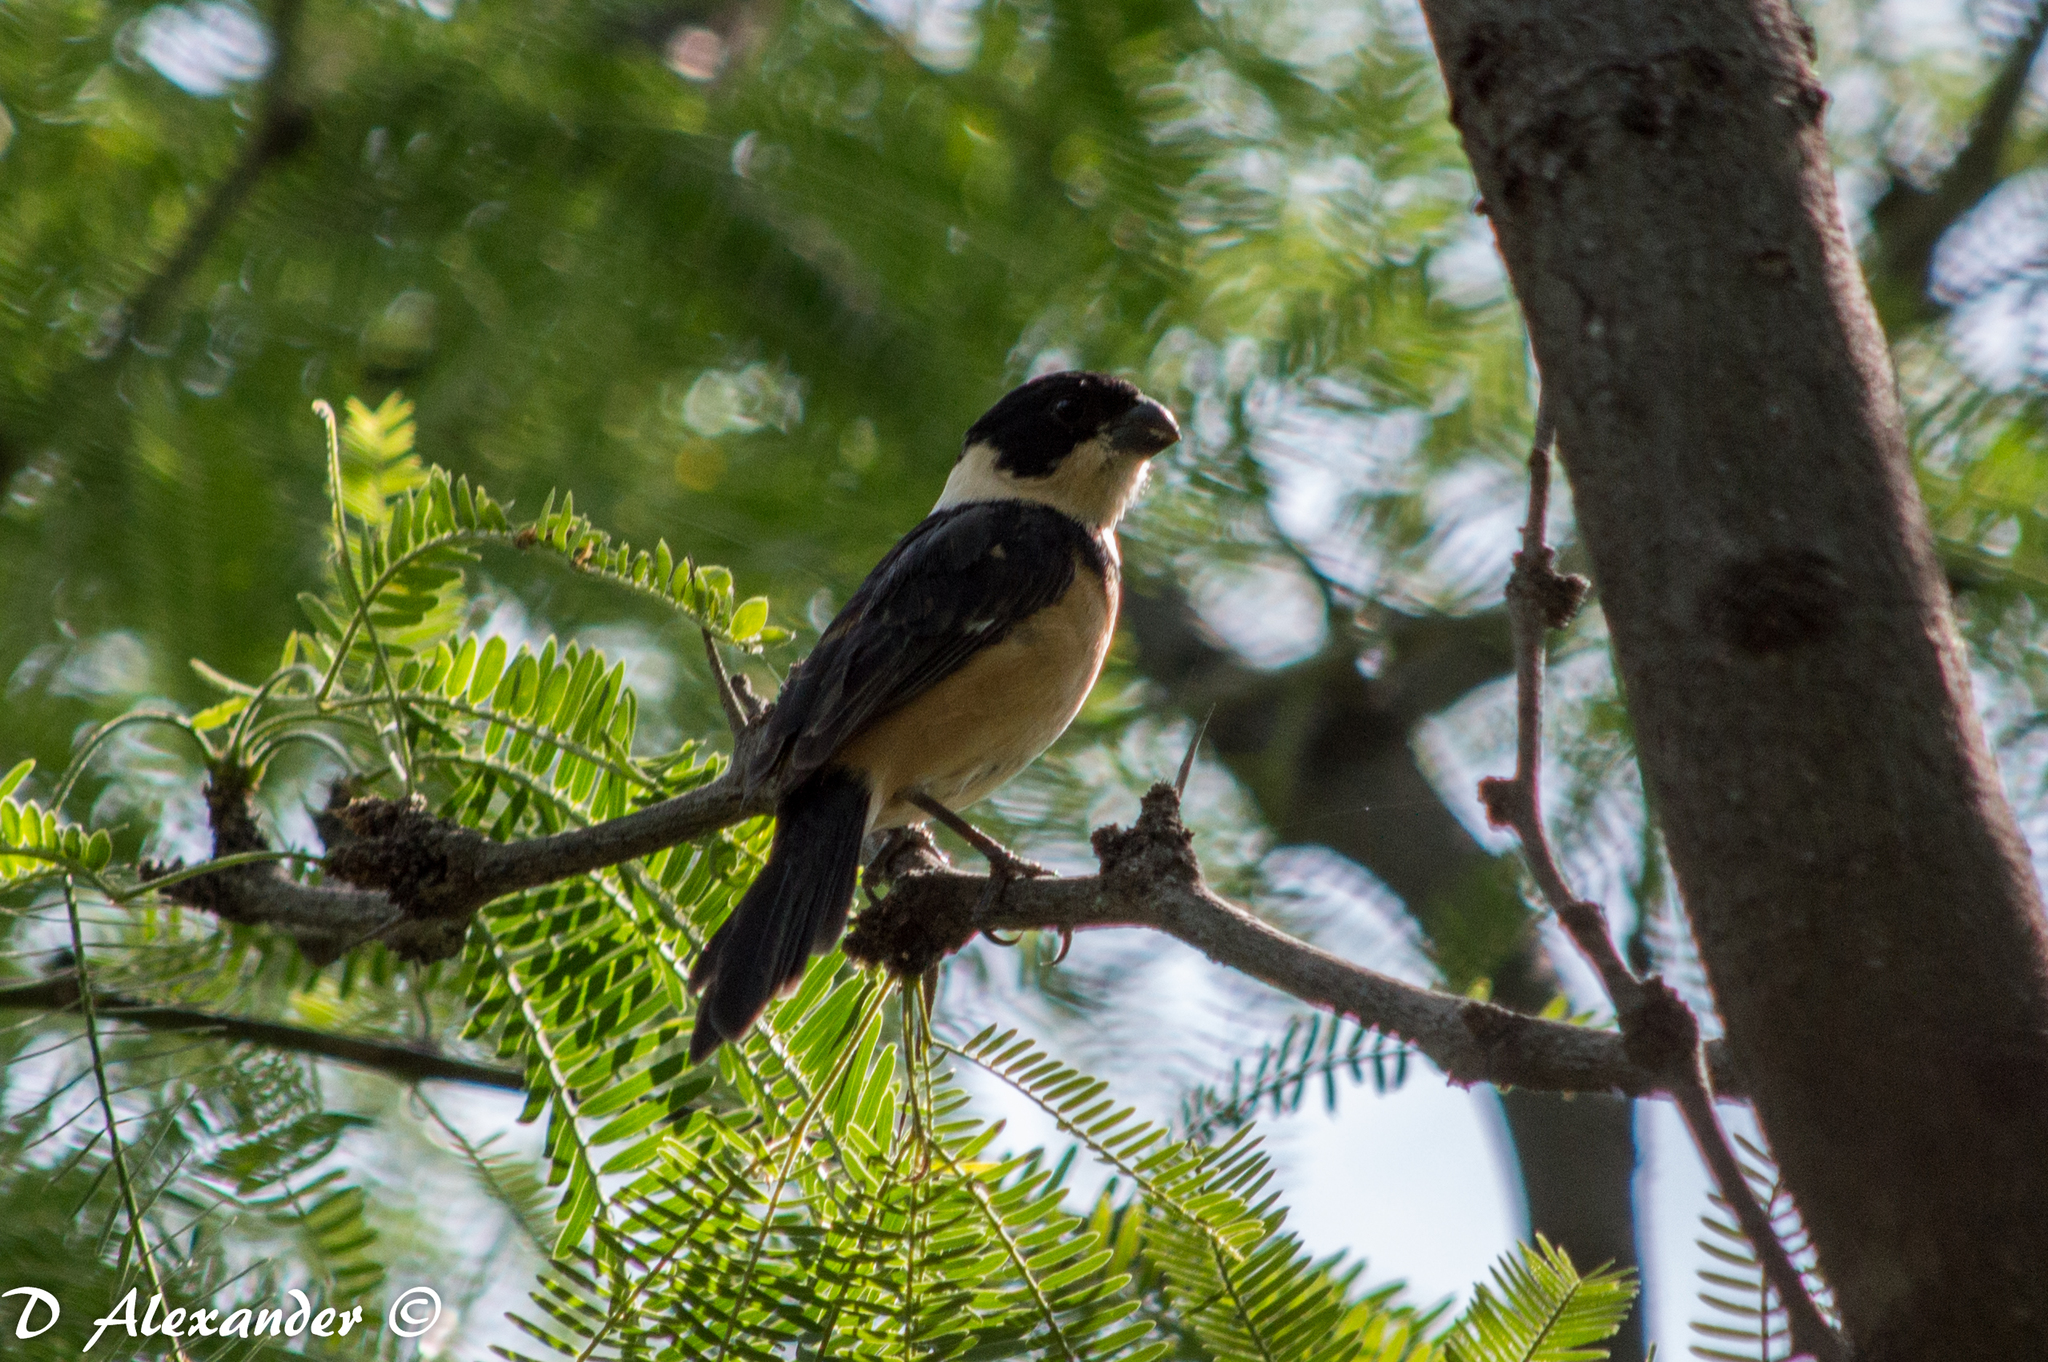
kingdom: Animalia
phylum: Chordata
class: Aves
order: Passeriformes
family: Thraupidae
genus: Sporophila
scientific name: Sporophila torqueola
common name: White-collared seedeater
